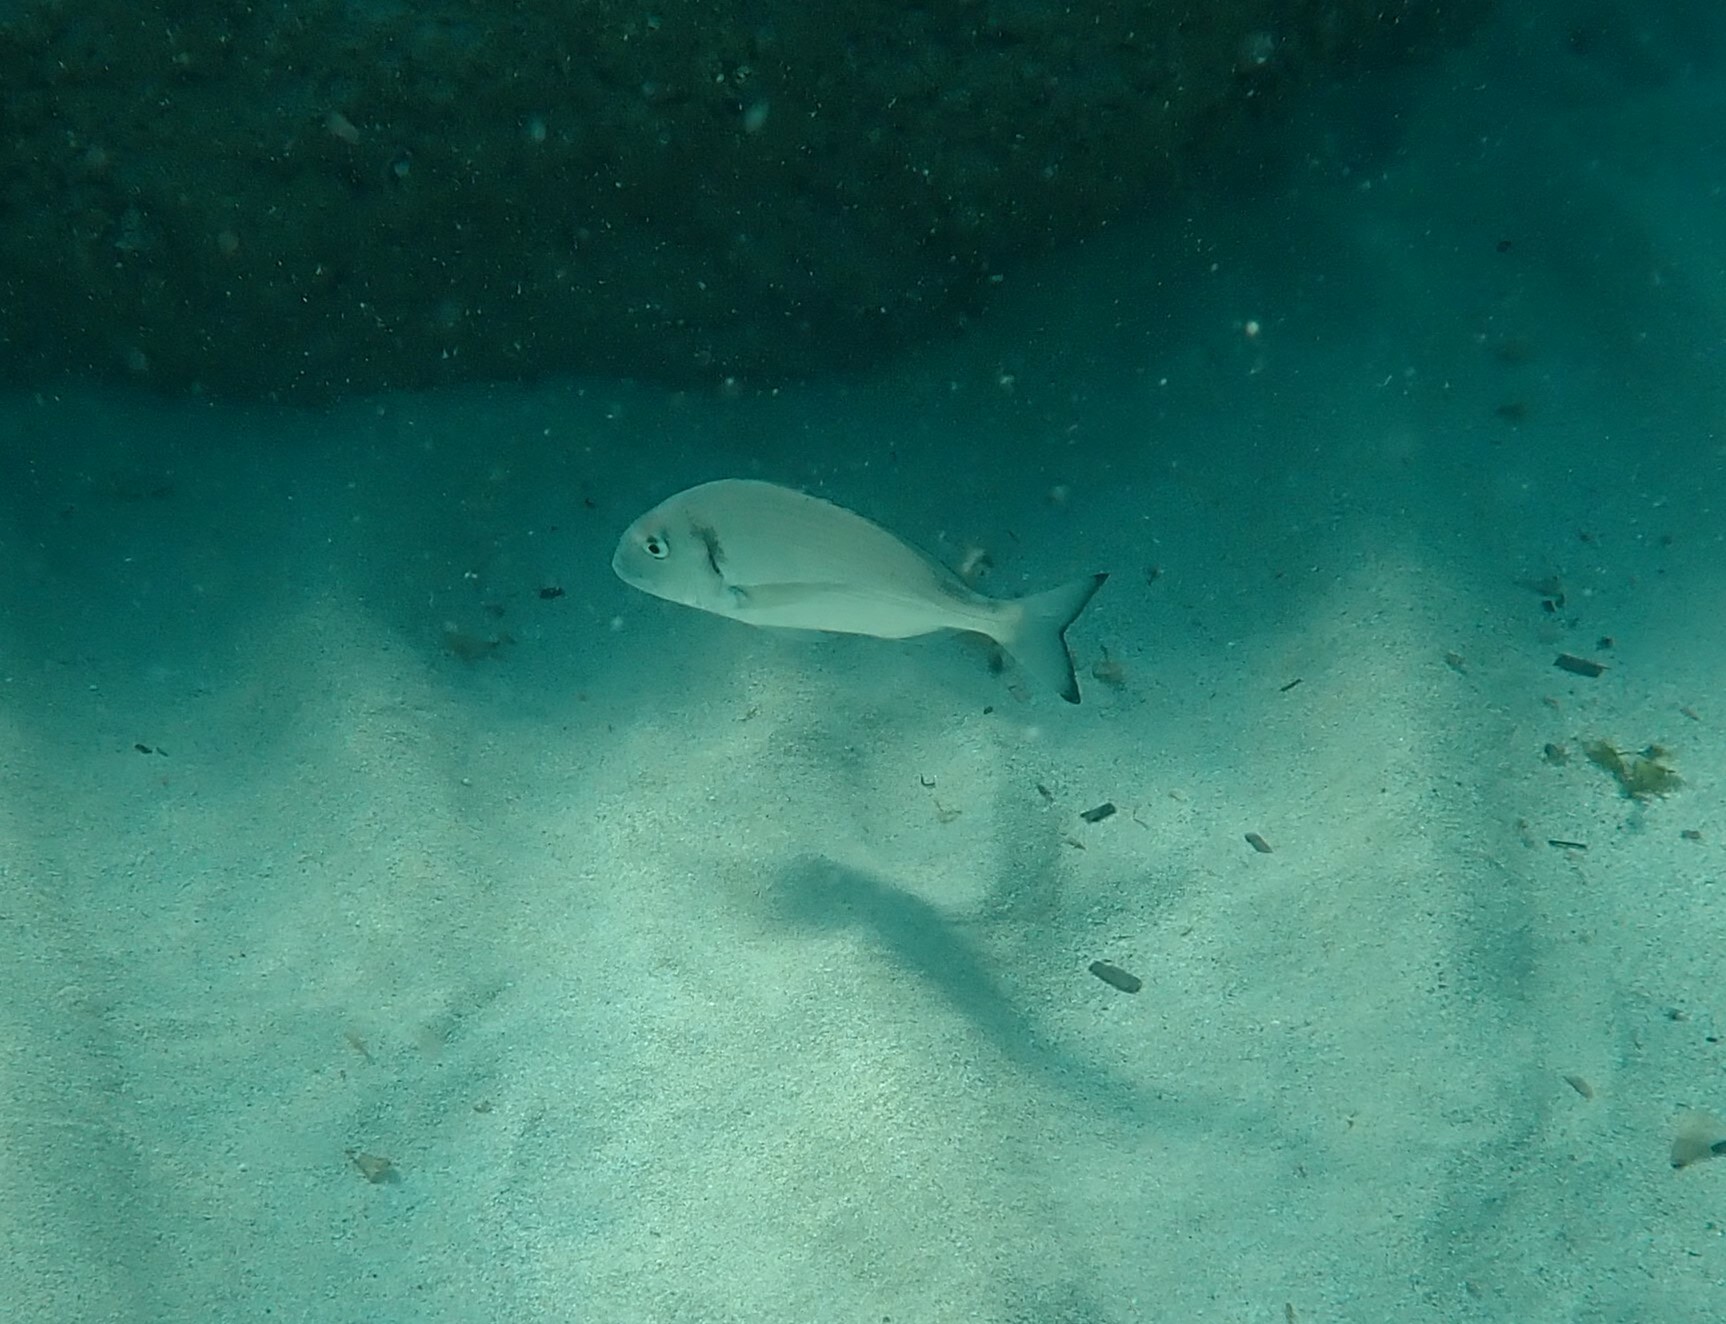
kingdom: Animalia
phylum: Chordata
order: Perciformes
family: Sparidae
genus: Sparus
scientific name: Sparus aurata
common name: Gilthead
